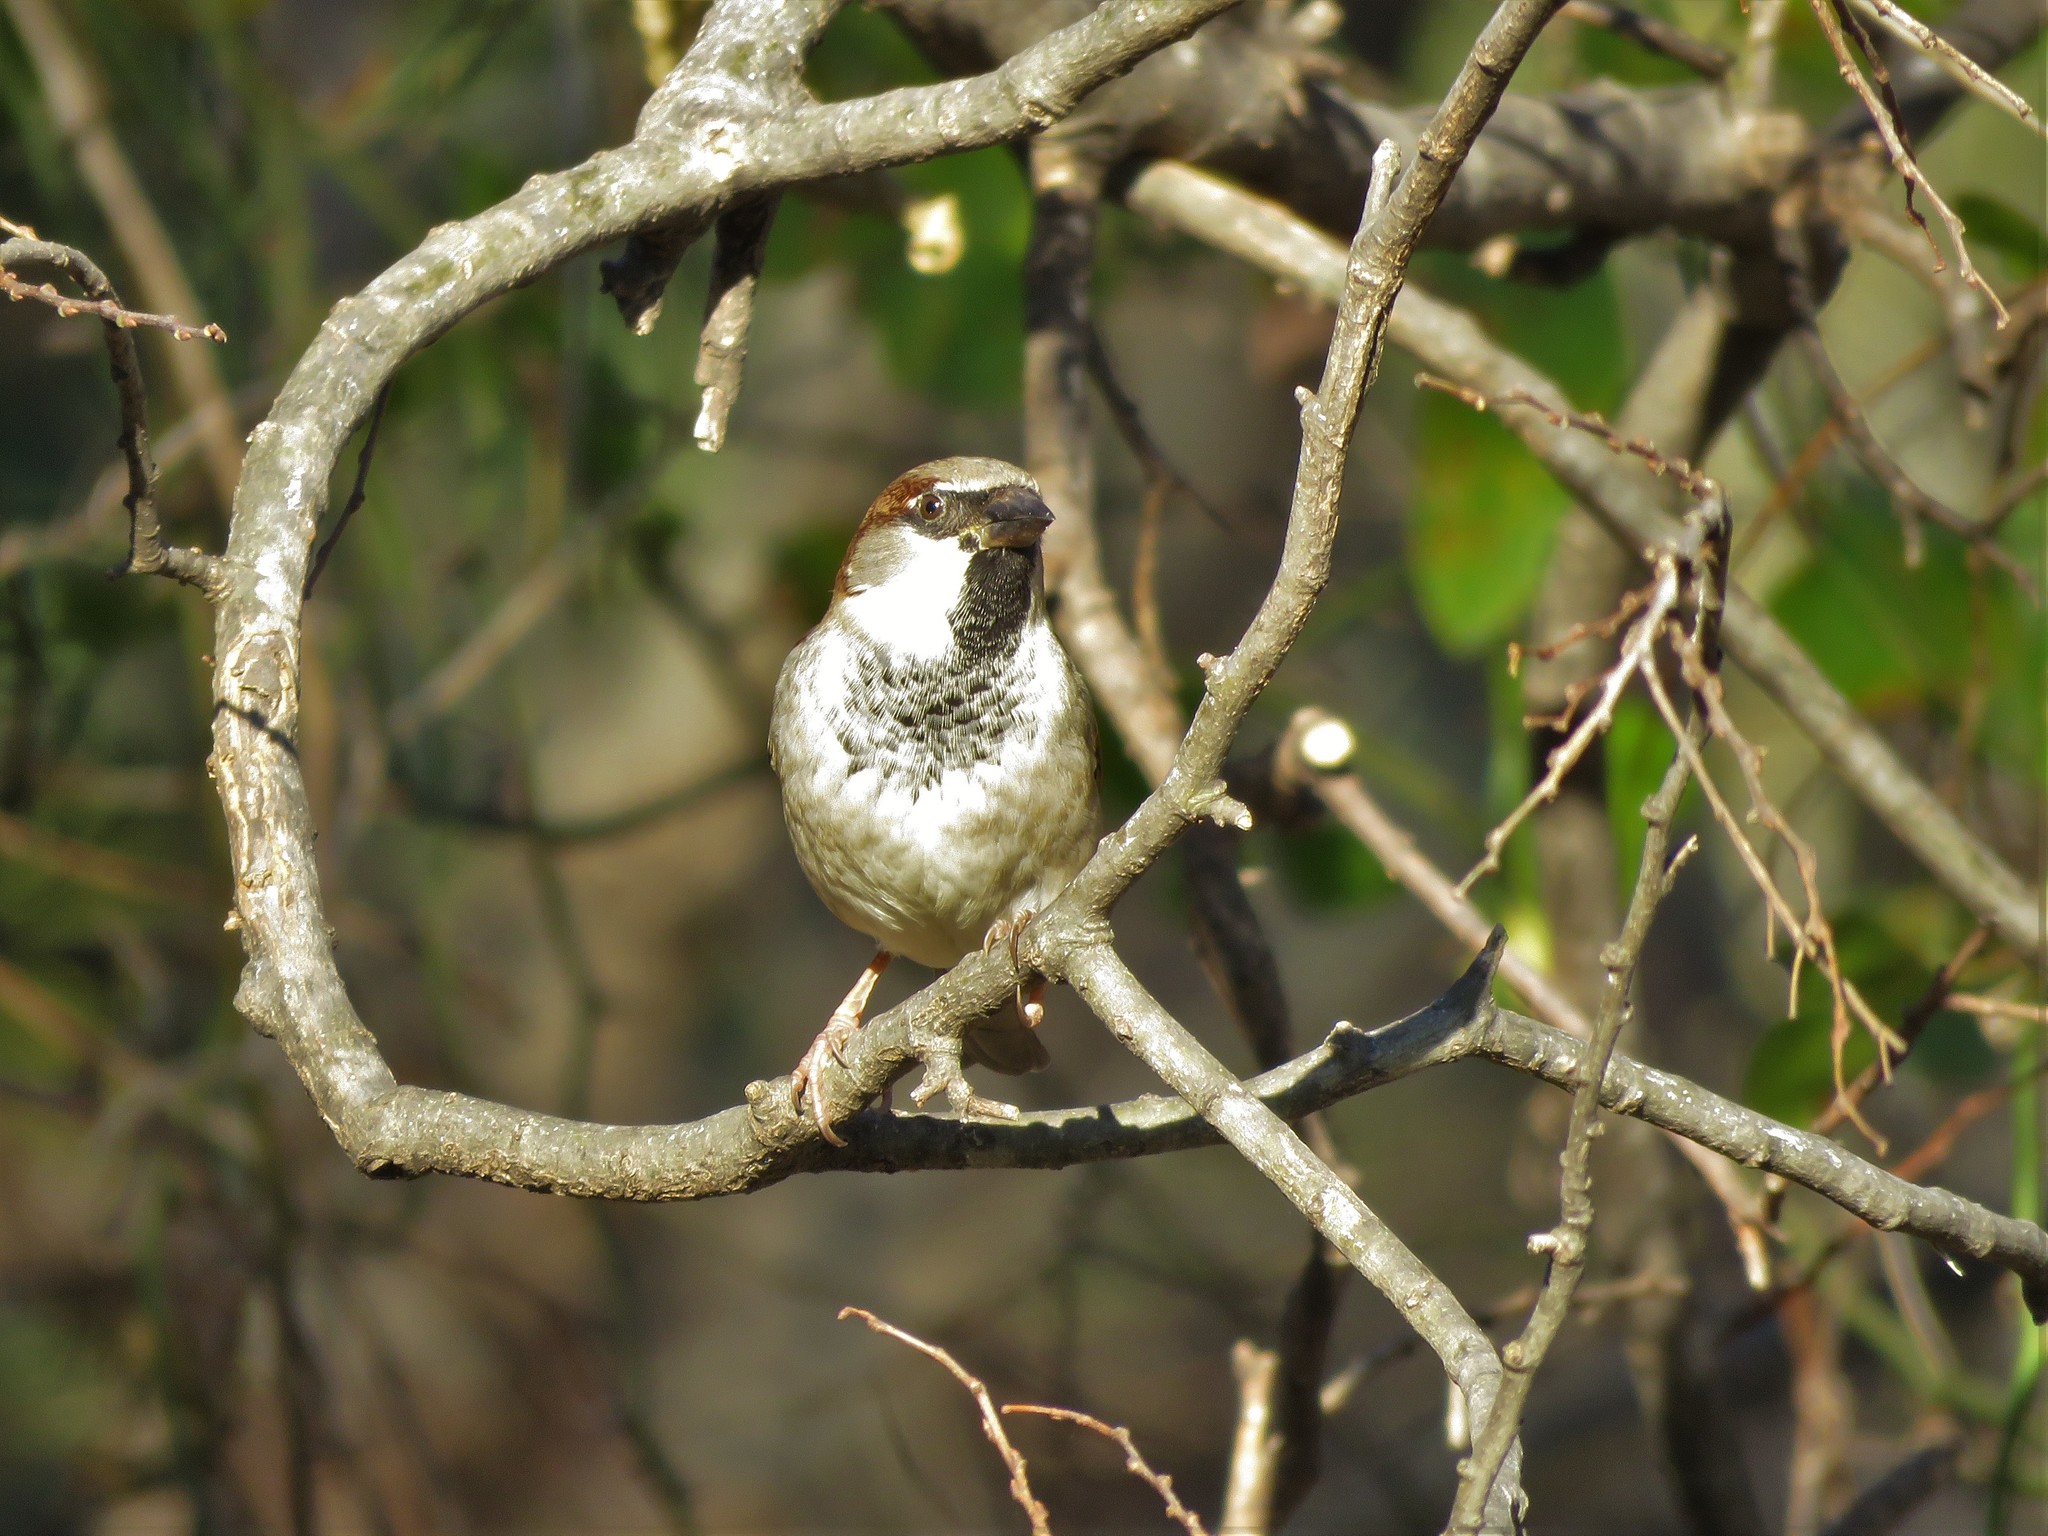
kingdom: Animalia
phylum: Chordata
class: Aves
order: Passeriformes
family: Passeridae
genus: Passer
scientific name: Passer domesticus
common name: House sparrow
